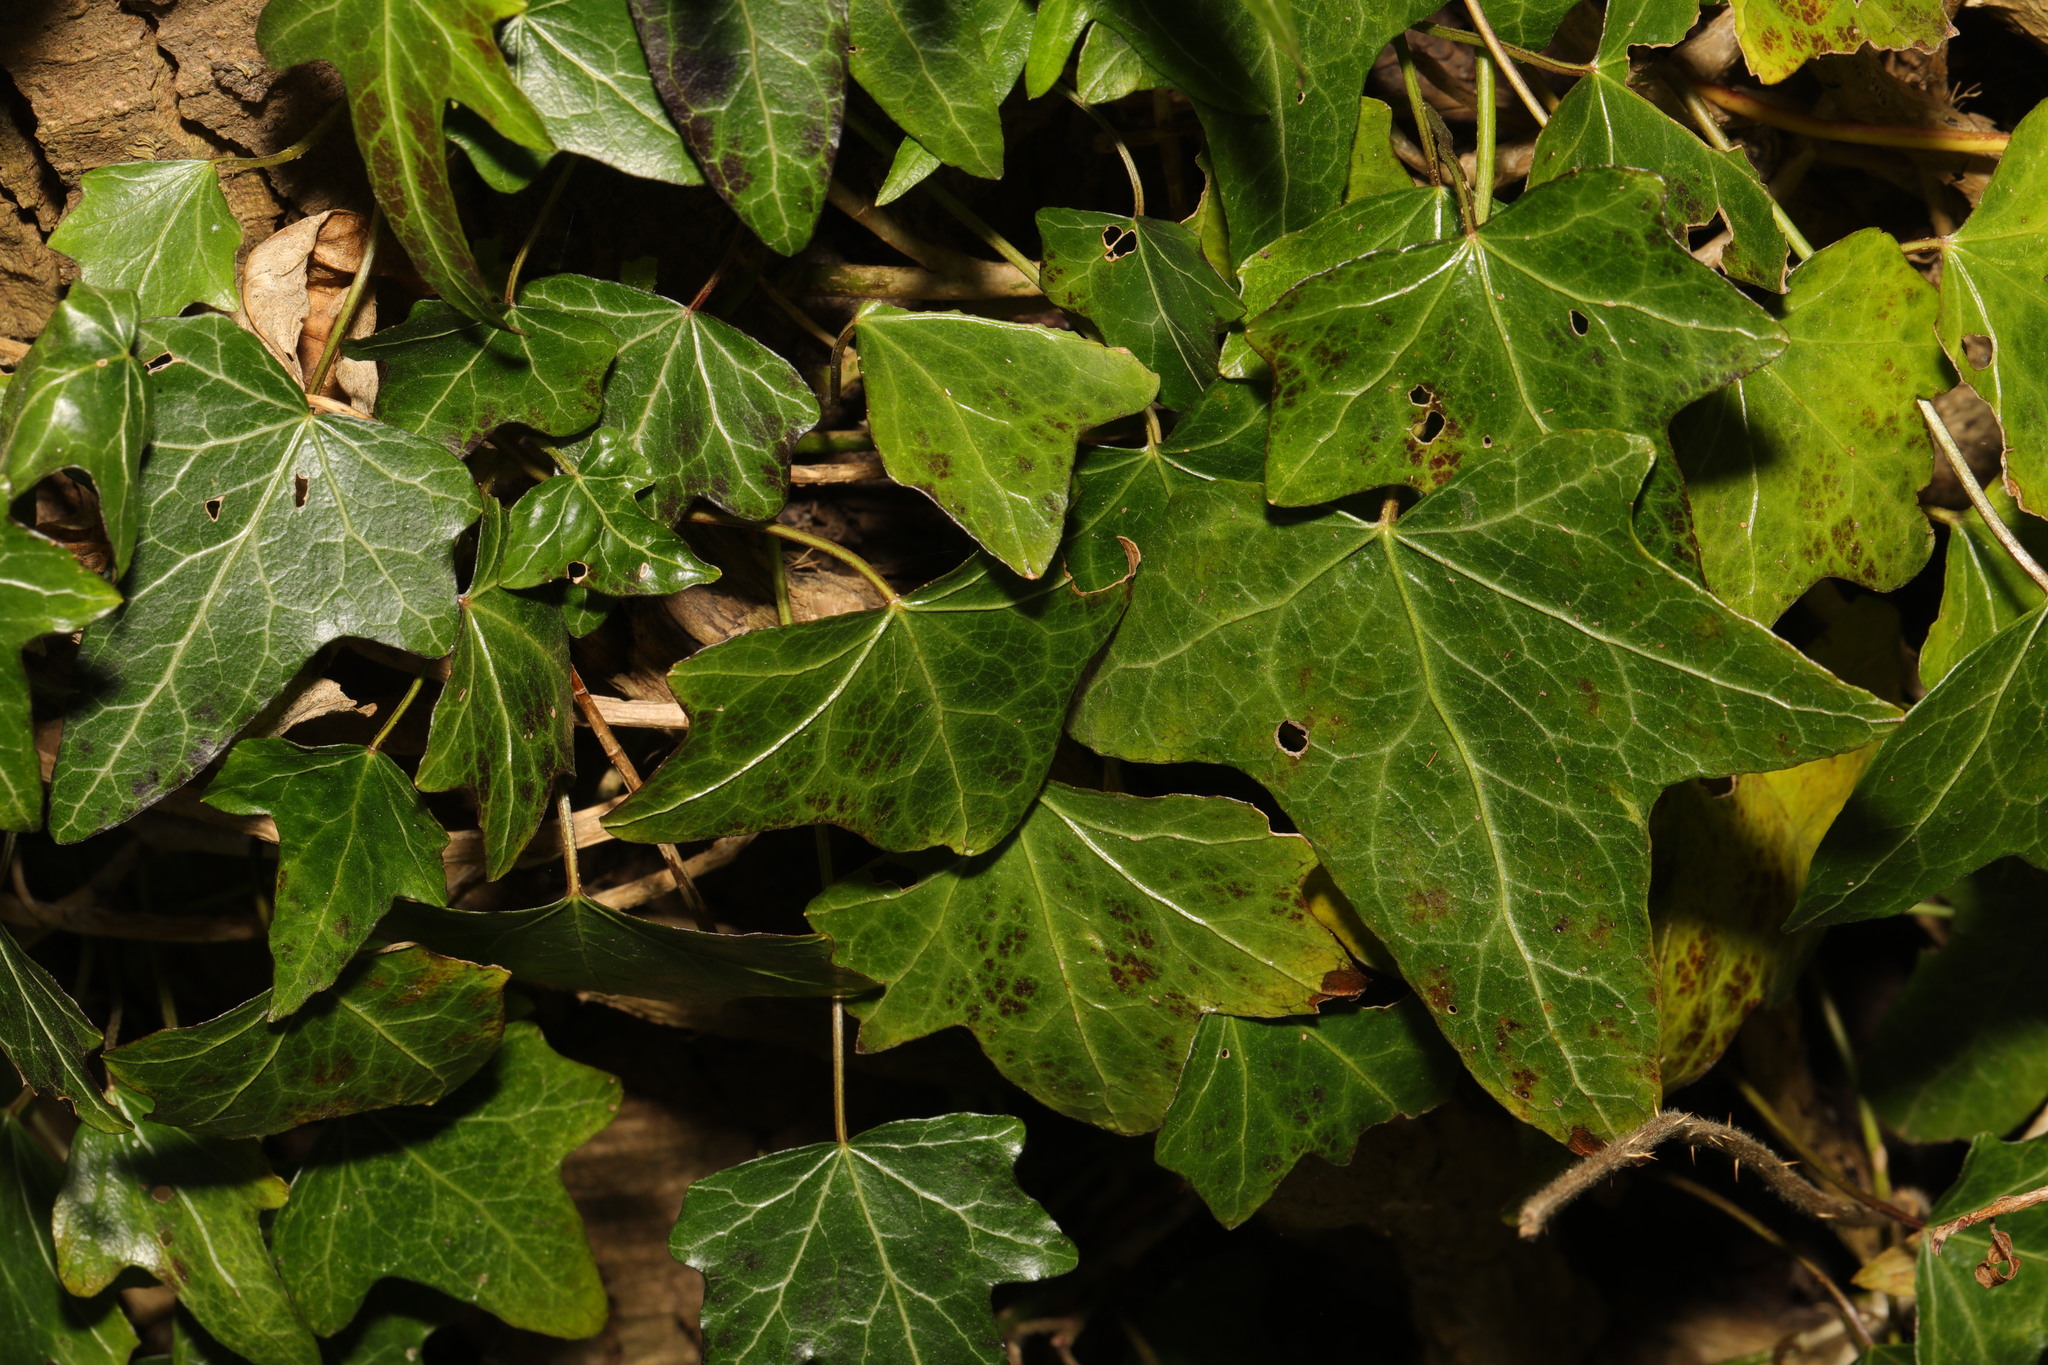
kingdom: Plantae
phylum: Tracheophyta
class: Magnoliopsida
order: Apiales
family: Araliaceae
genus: Hedera
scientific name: Hedera helix
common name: Ivy
